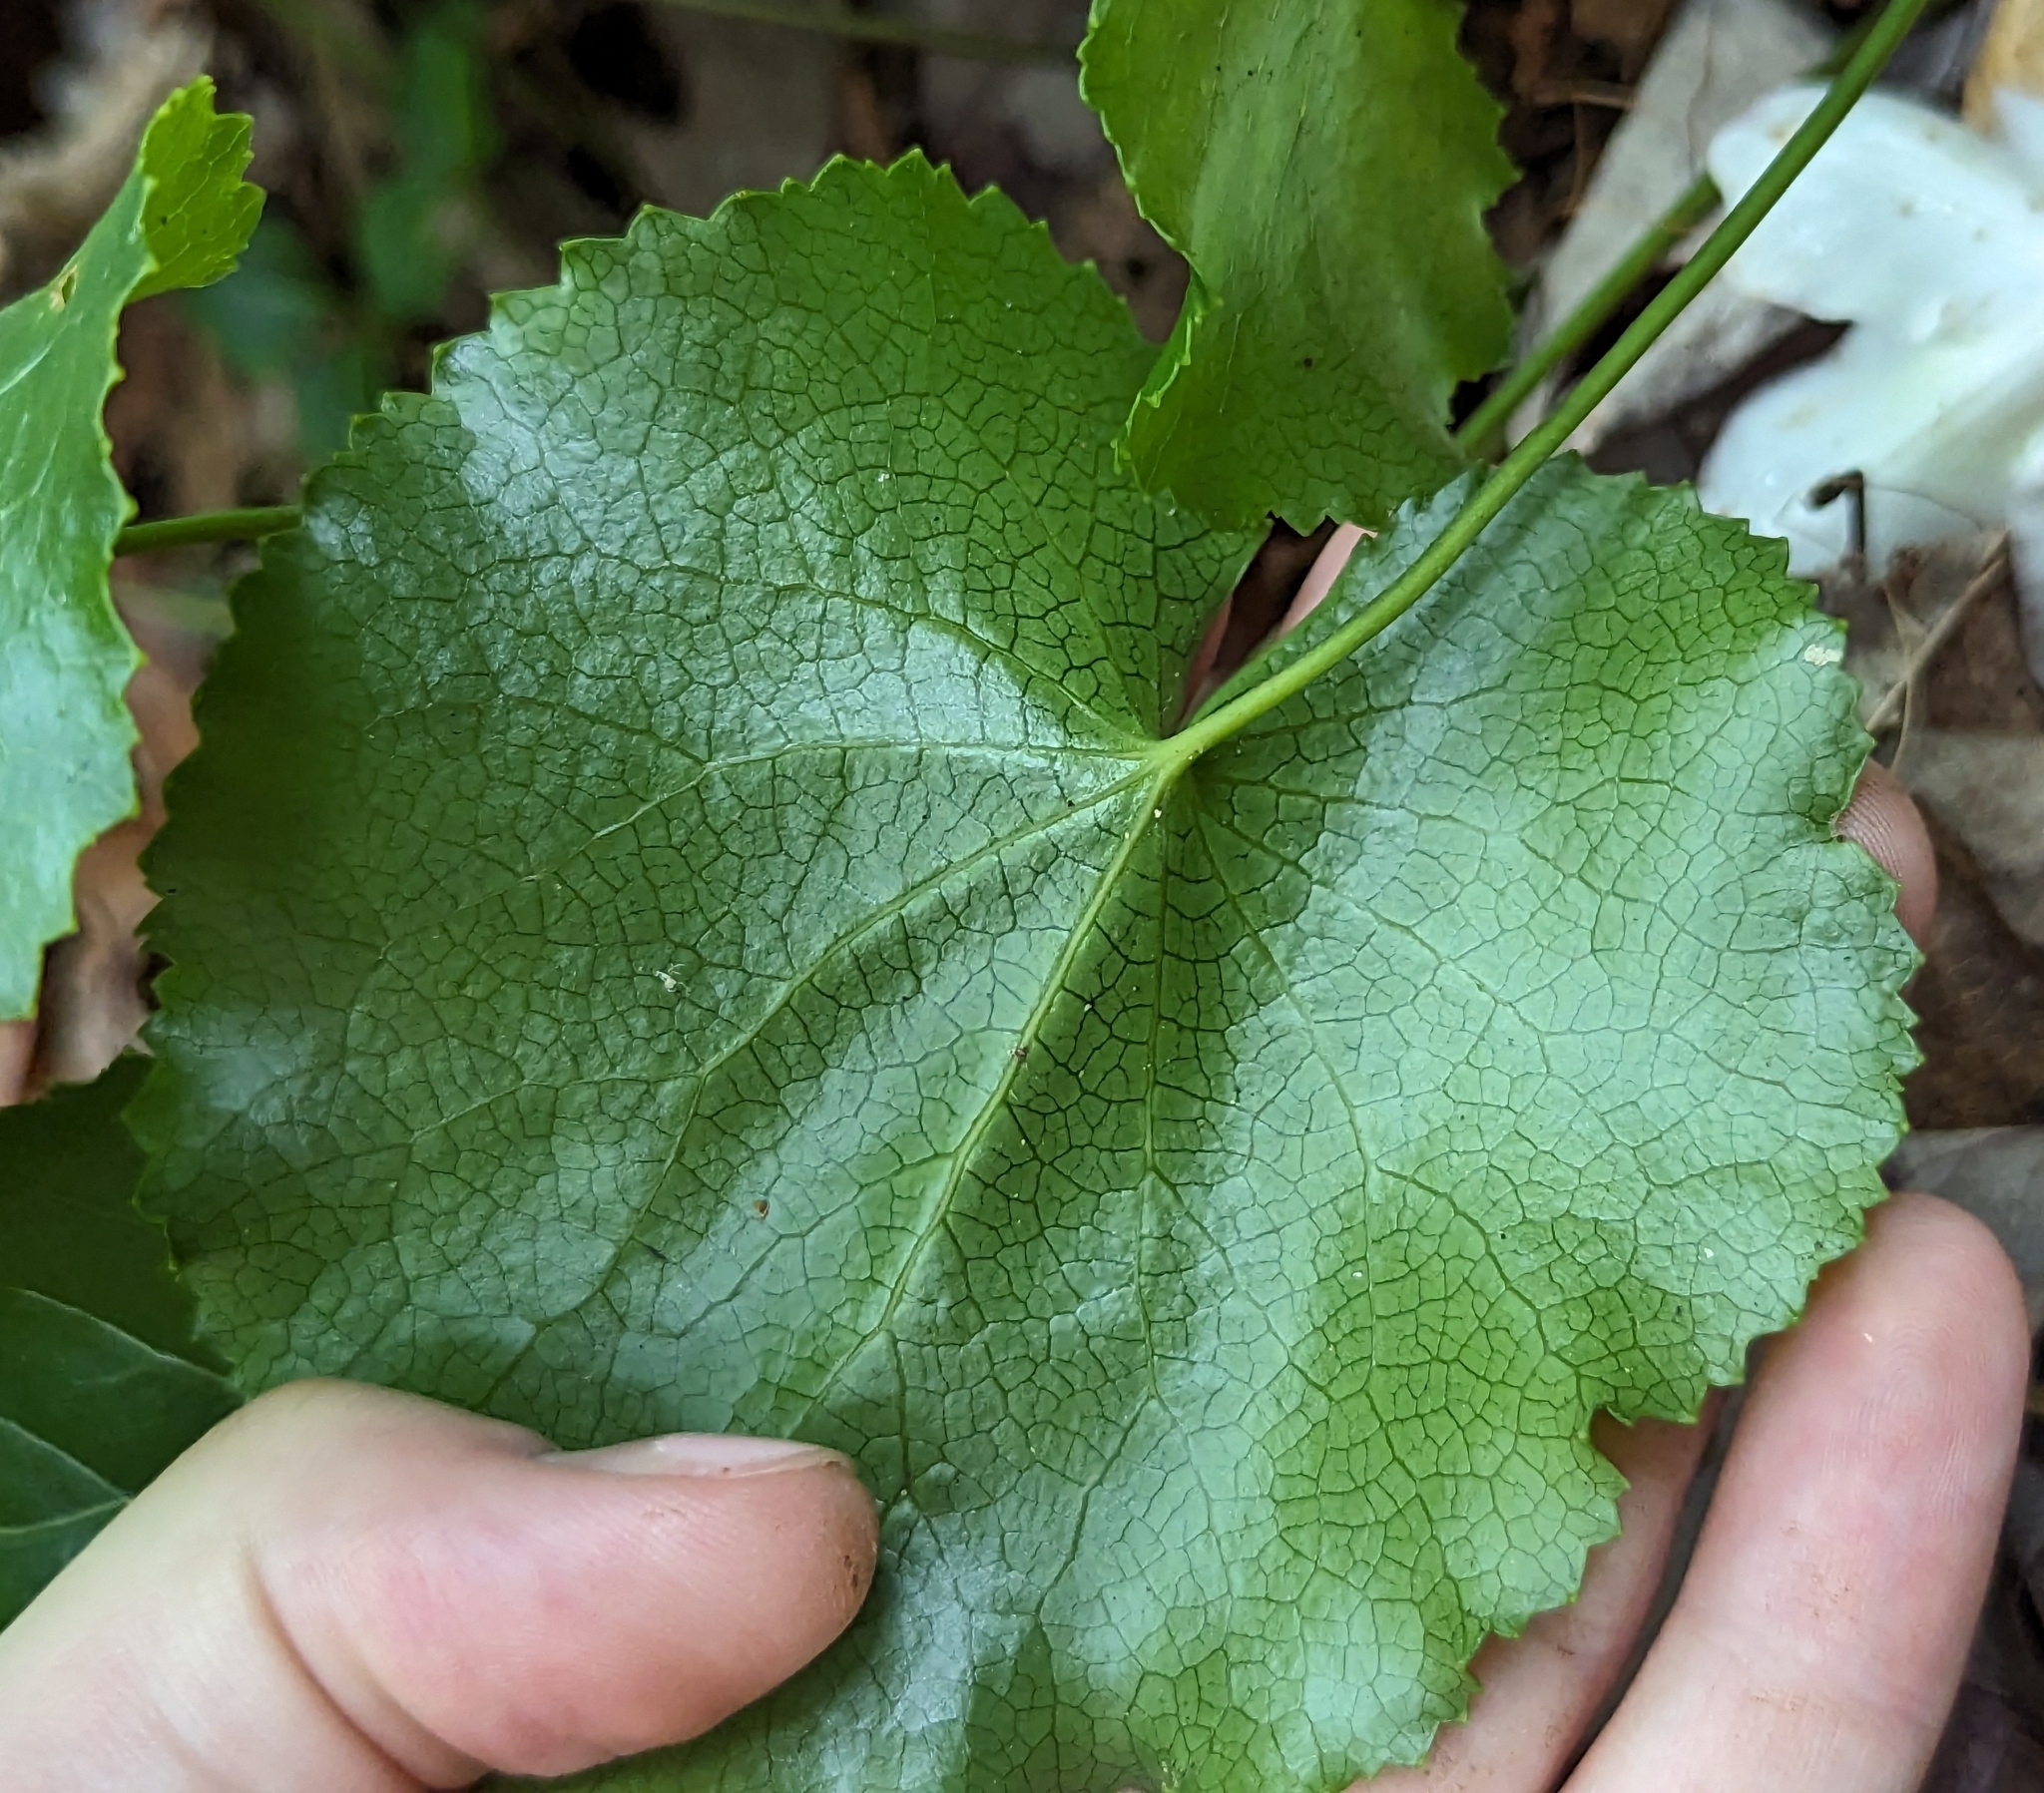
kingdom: Plantae
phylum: Tracheophyta
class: Magnoliopsida
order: Ericales
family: Diapensiaceae
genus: Galax
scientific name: Galax urceolata
